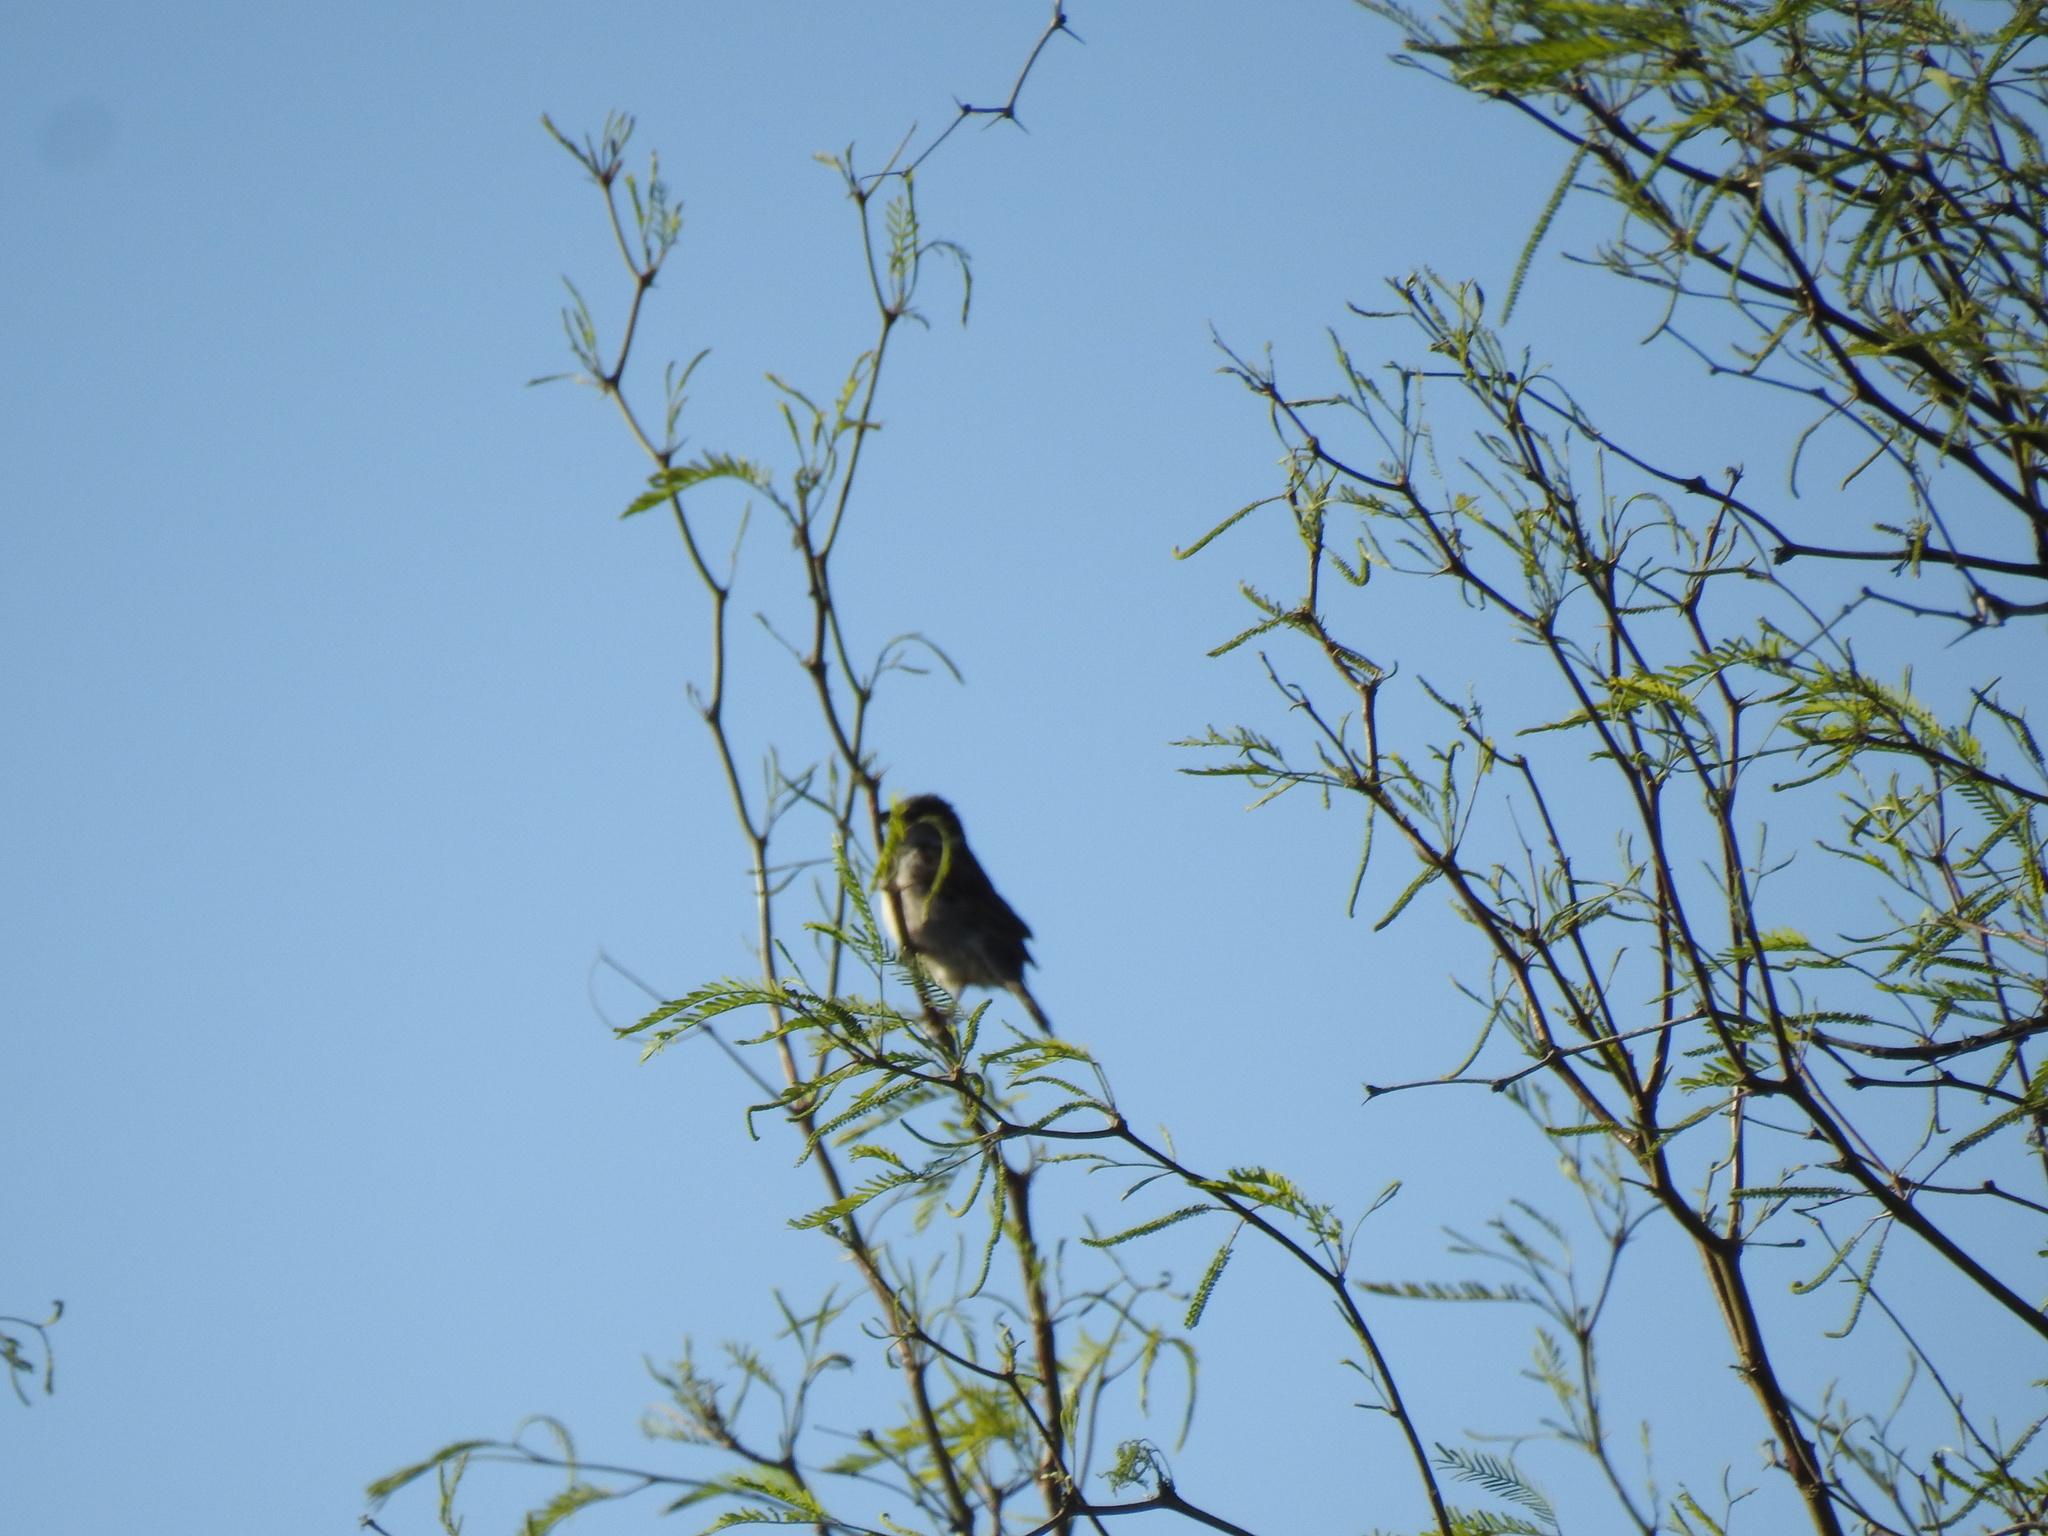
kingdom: Animalia
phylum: Chordata
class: Aves
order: Passeriformes
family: Passeridae
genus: Passer
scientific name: Passer domesticus
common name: House sparrow
